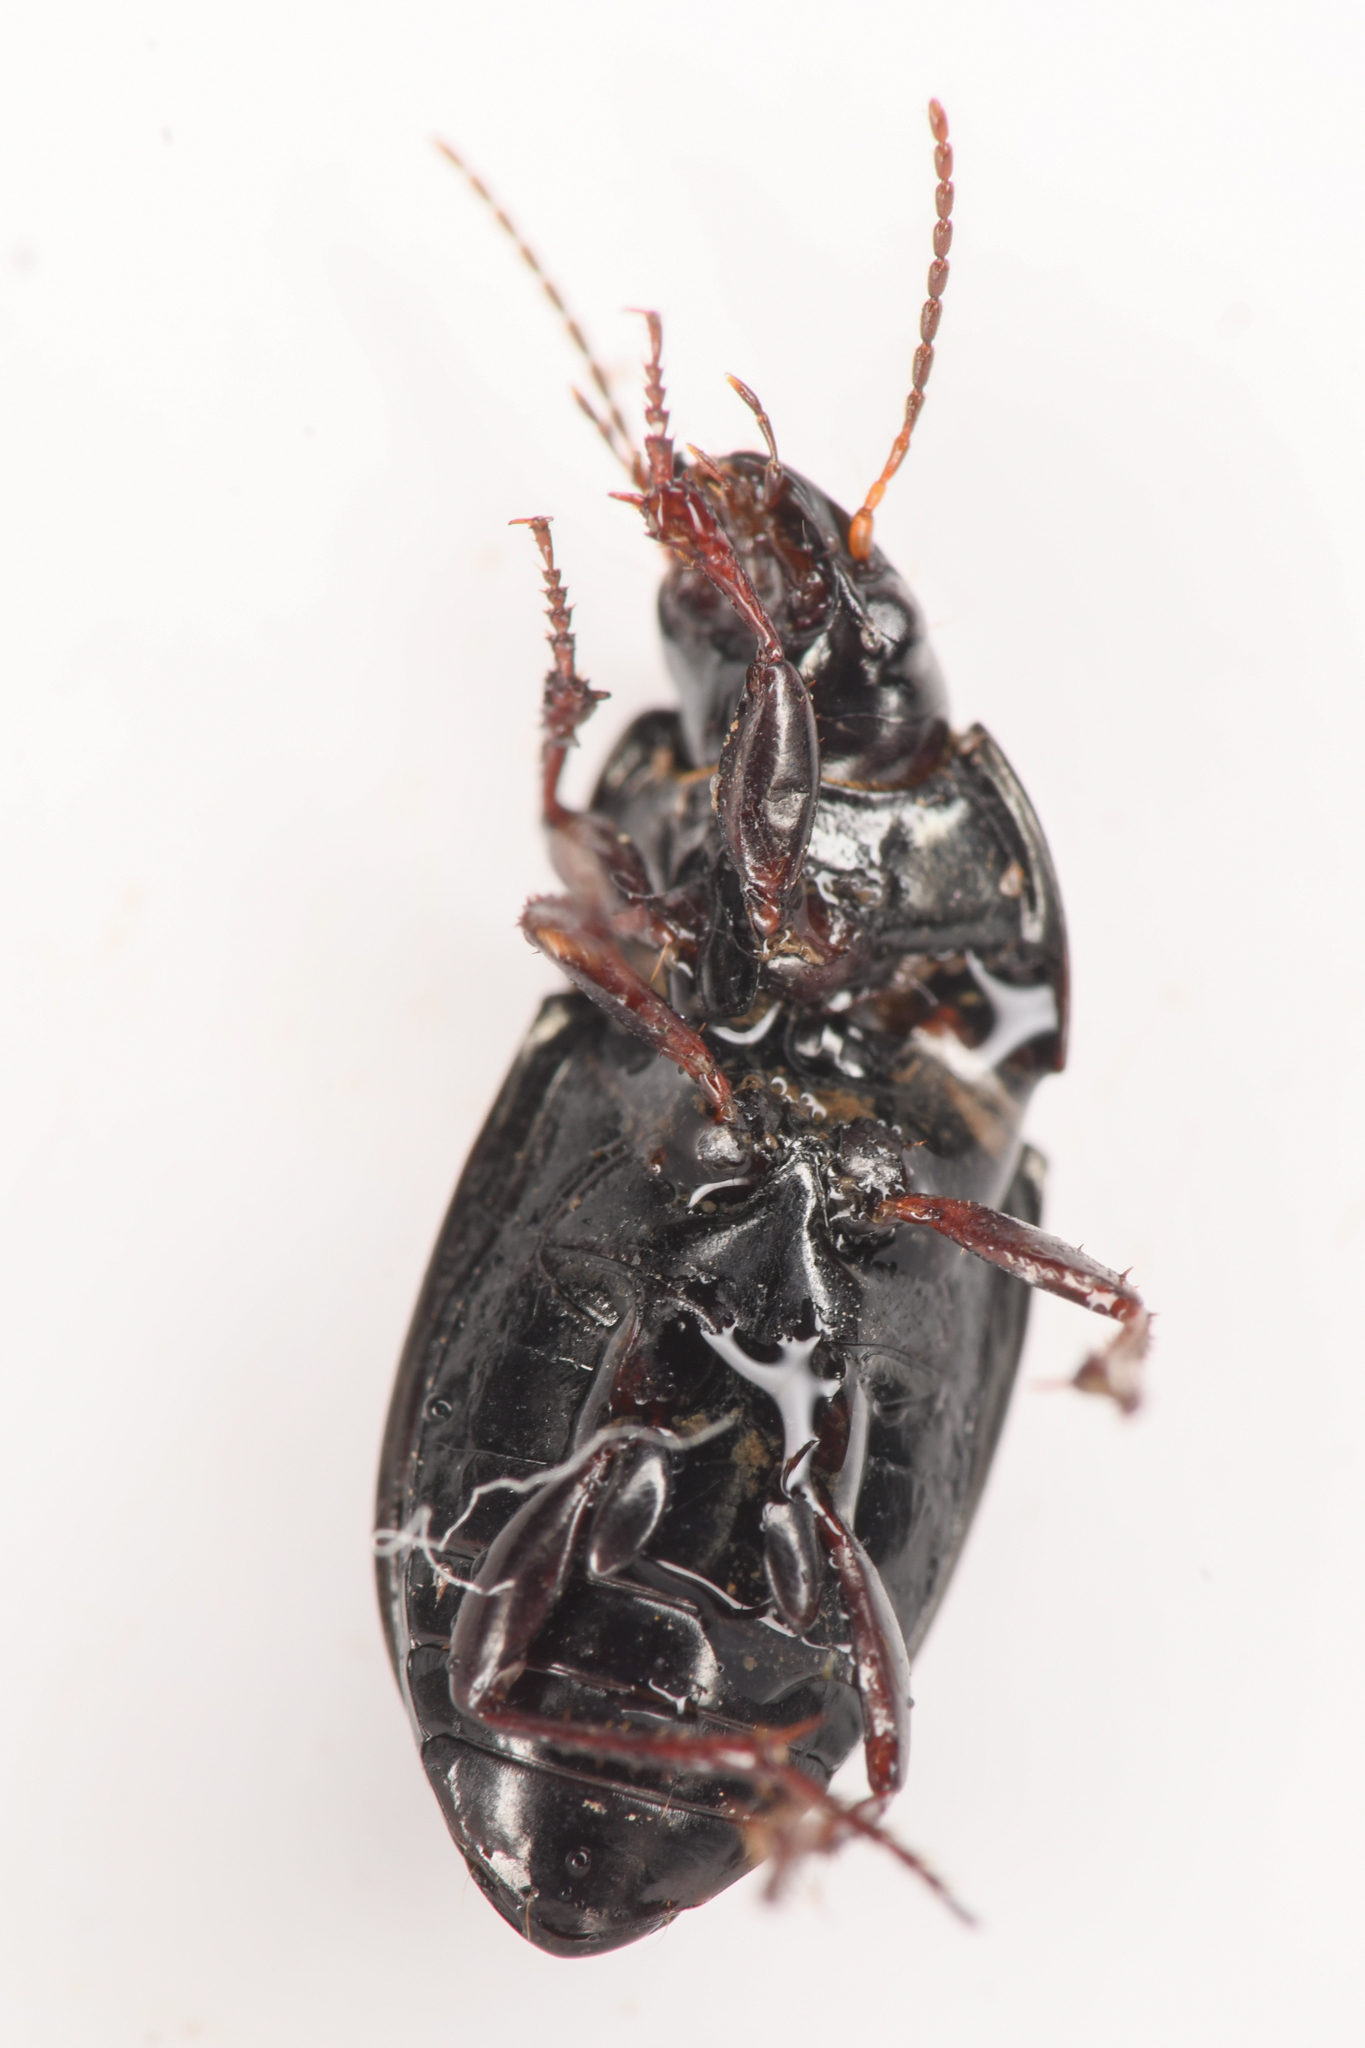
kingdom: Animalia
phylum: Arthropoda
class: Insecta
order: Coleoptera
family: Carabidae
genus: Amara
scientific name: Amara conflata
